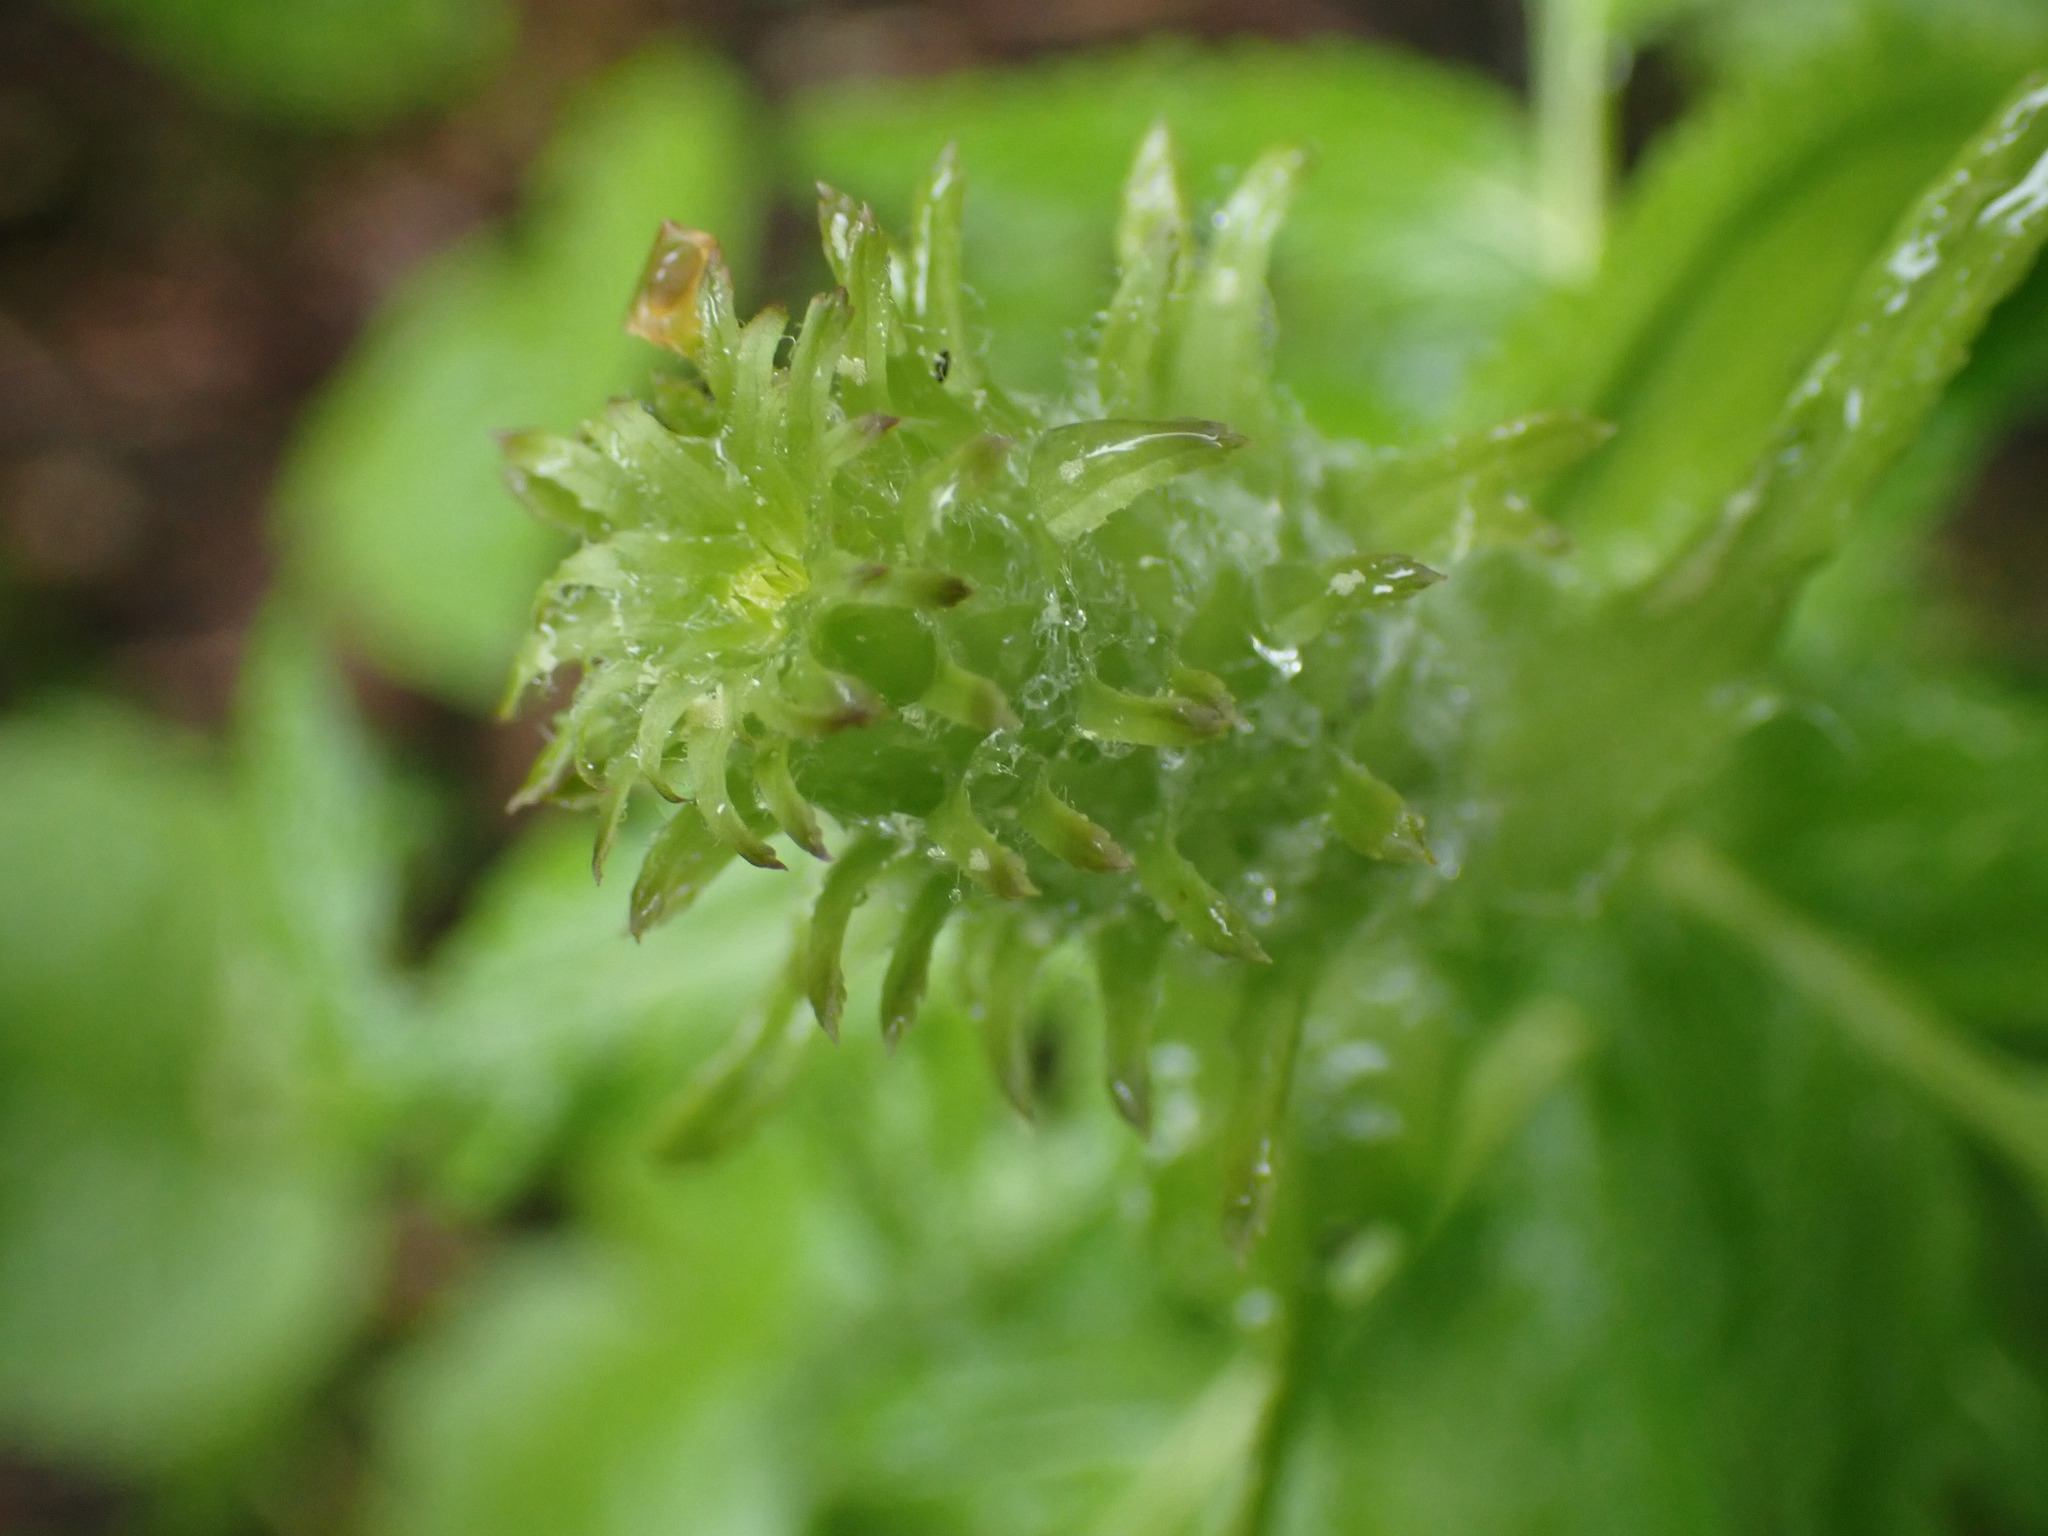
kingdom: Plantae
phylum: Tracheophyta
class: Magnoliopsida
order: Lamiales
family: Orobanchaceae
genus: Pedicularis
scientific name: Pedicularis bracteosa
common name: Bracted lousewort
